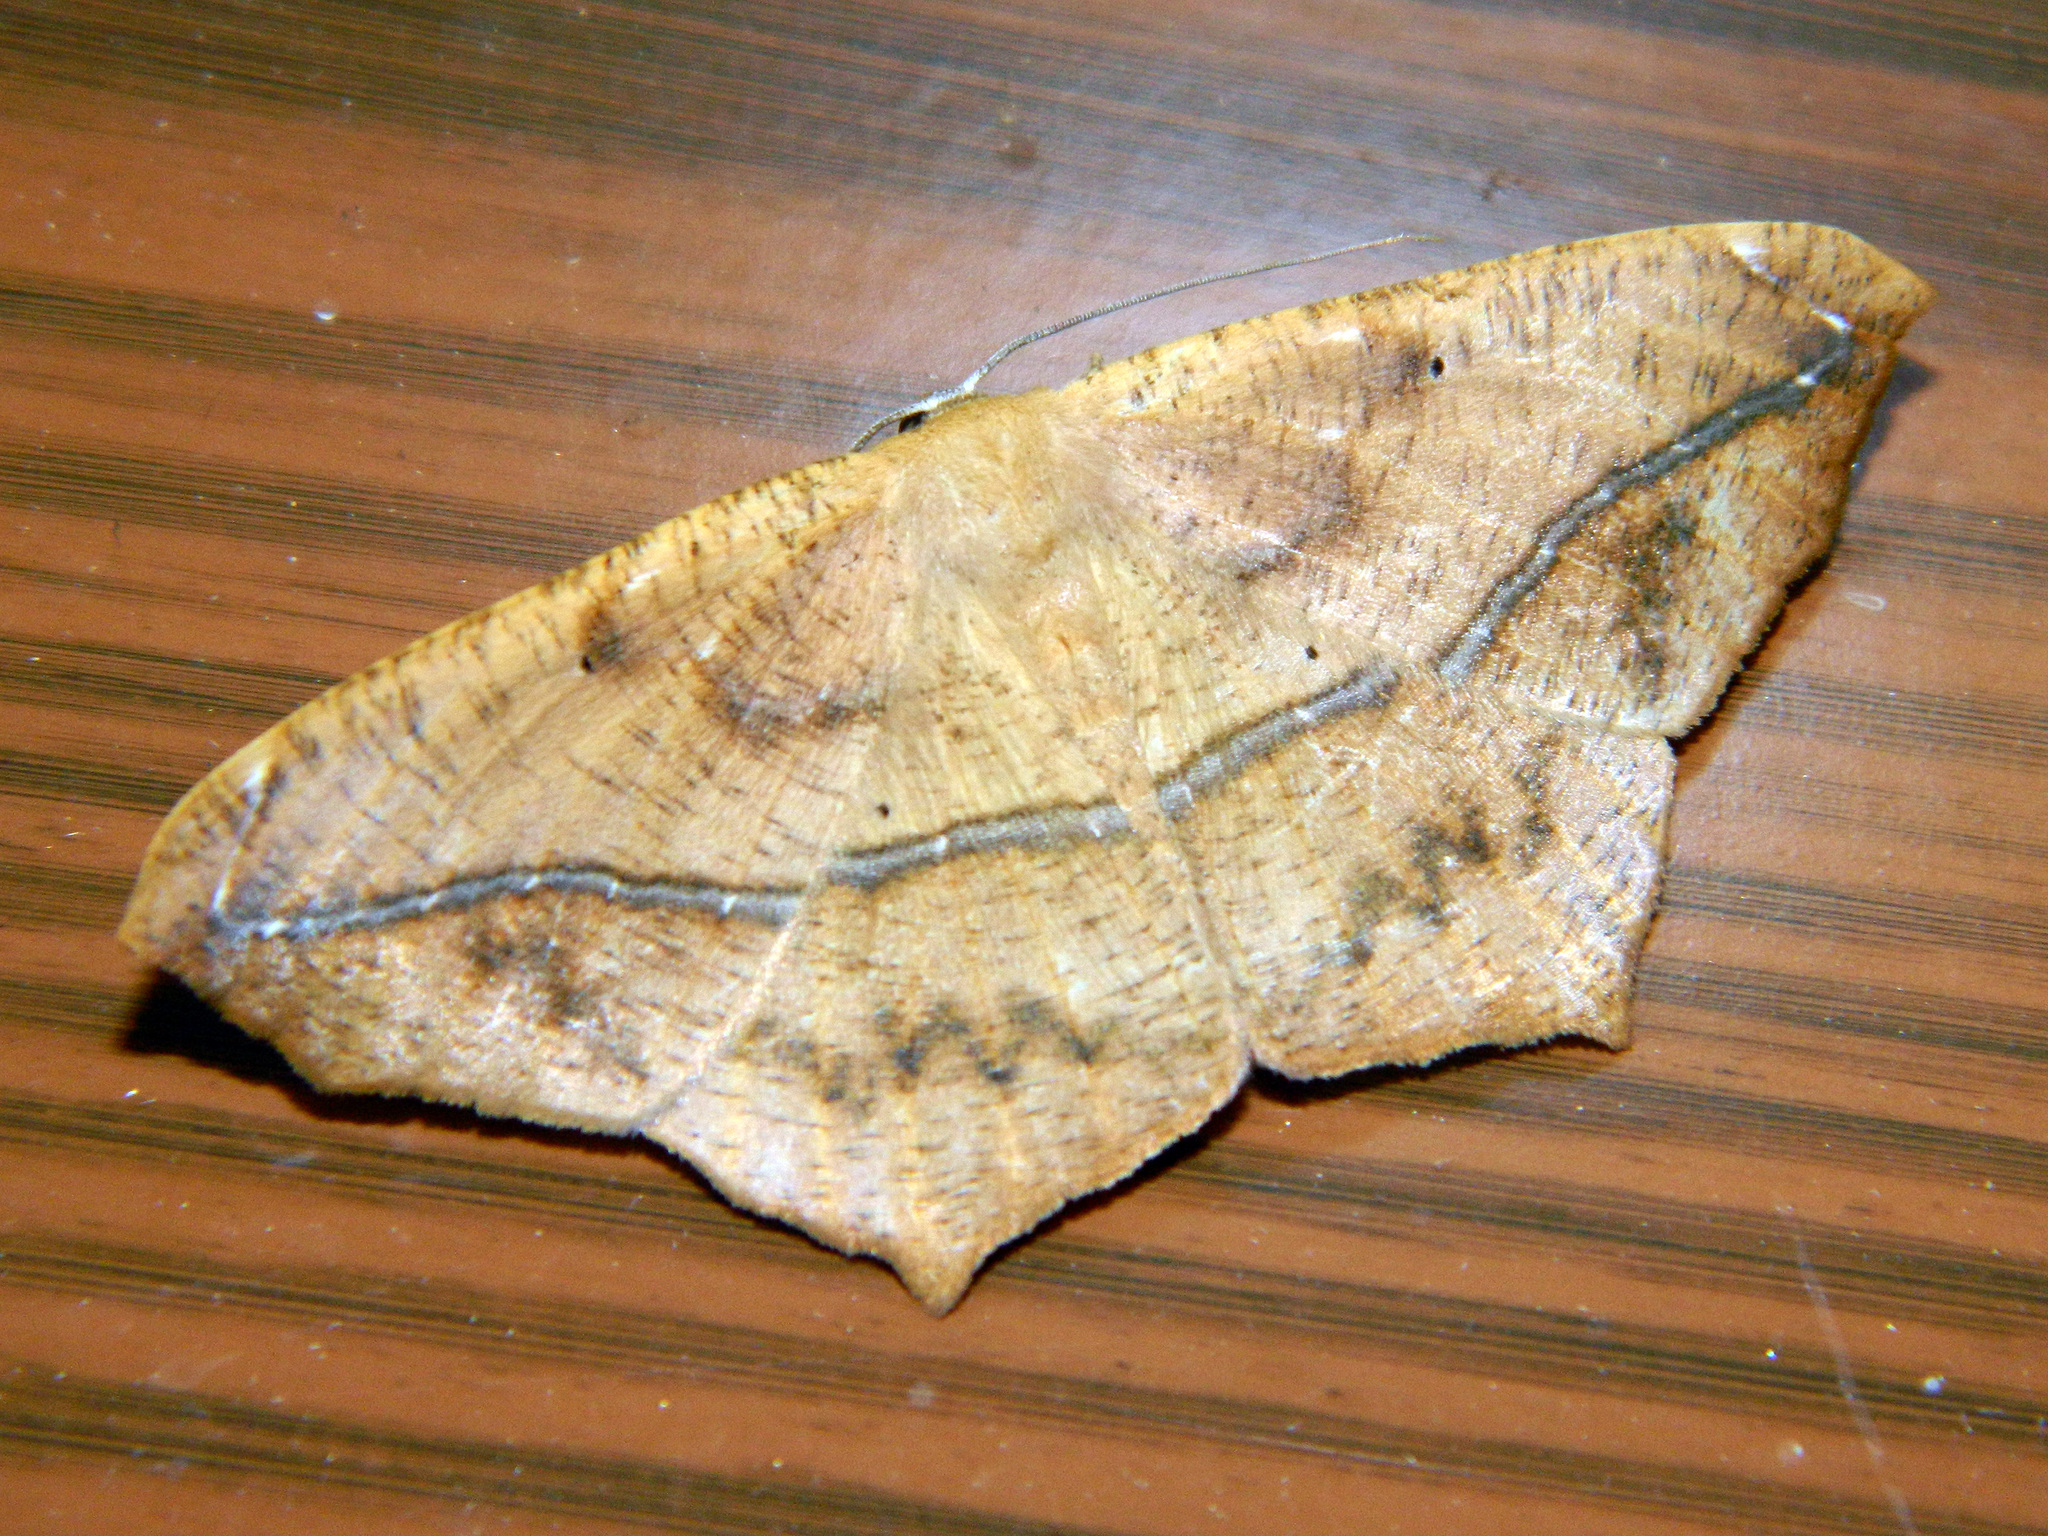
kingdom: Animalia
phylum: Arthropoda
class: Insecta
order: Lepidoptera
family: Geometridae
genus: Prochoerodes
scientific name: Prochoerodes lineola
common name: Large maple spanworm
